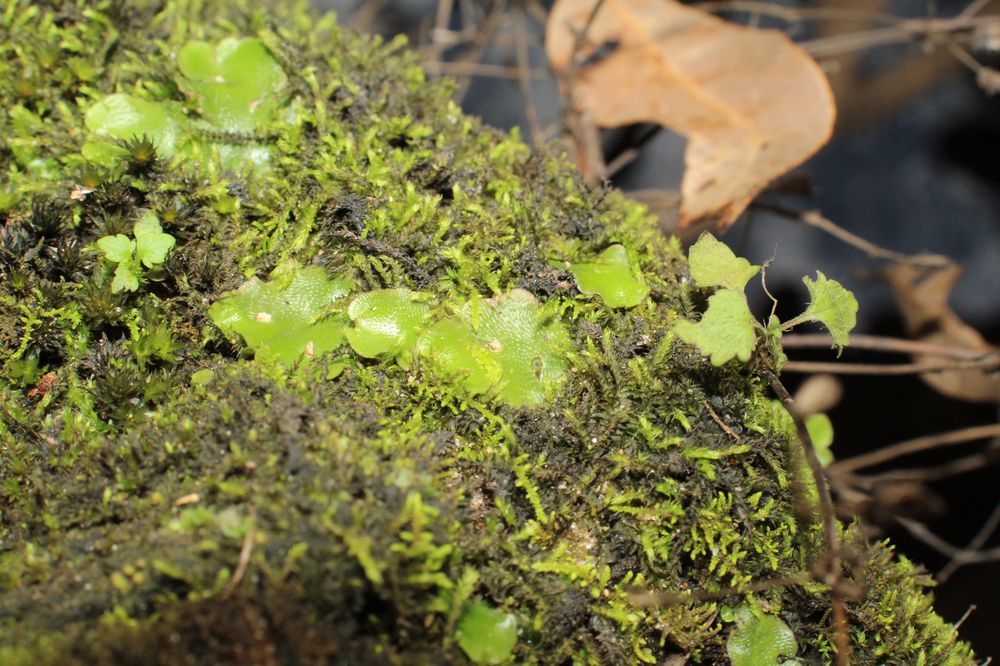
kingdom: Plantae
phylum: Marchantiophyta
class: Marchantiopsida
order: Lunulariales
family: Lunulariaceae
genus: Lunularia
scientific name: Lunularia cruciata
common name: Crescent-cup liverwort
